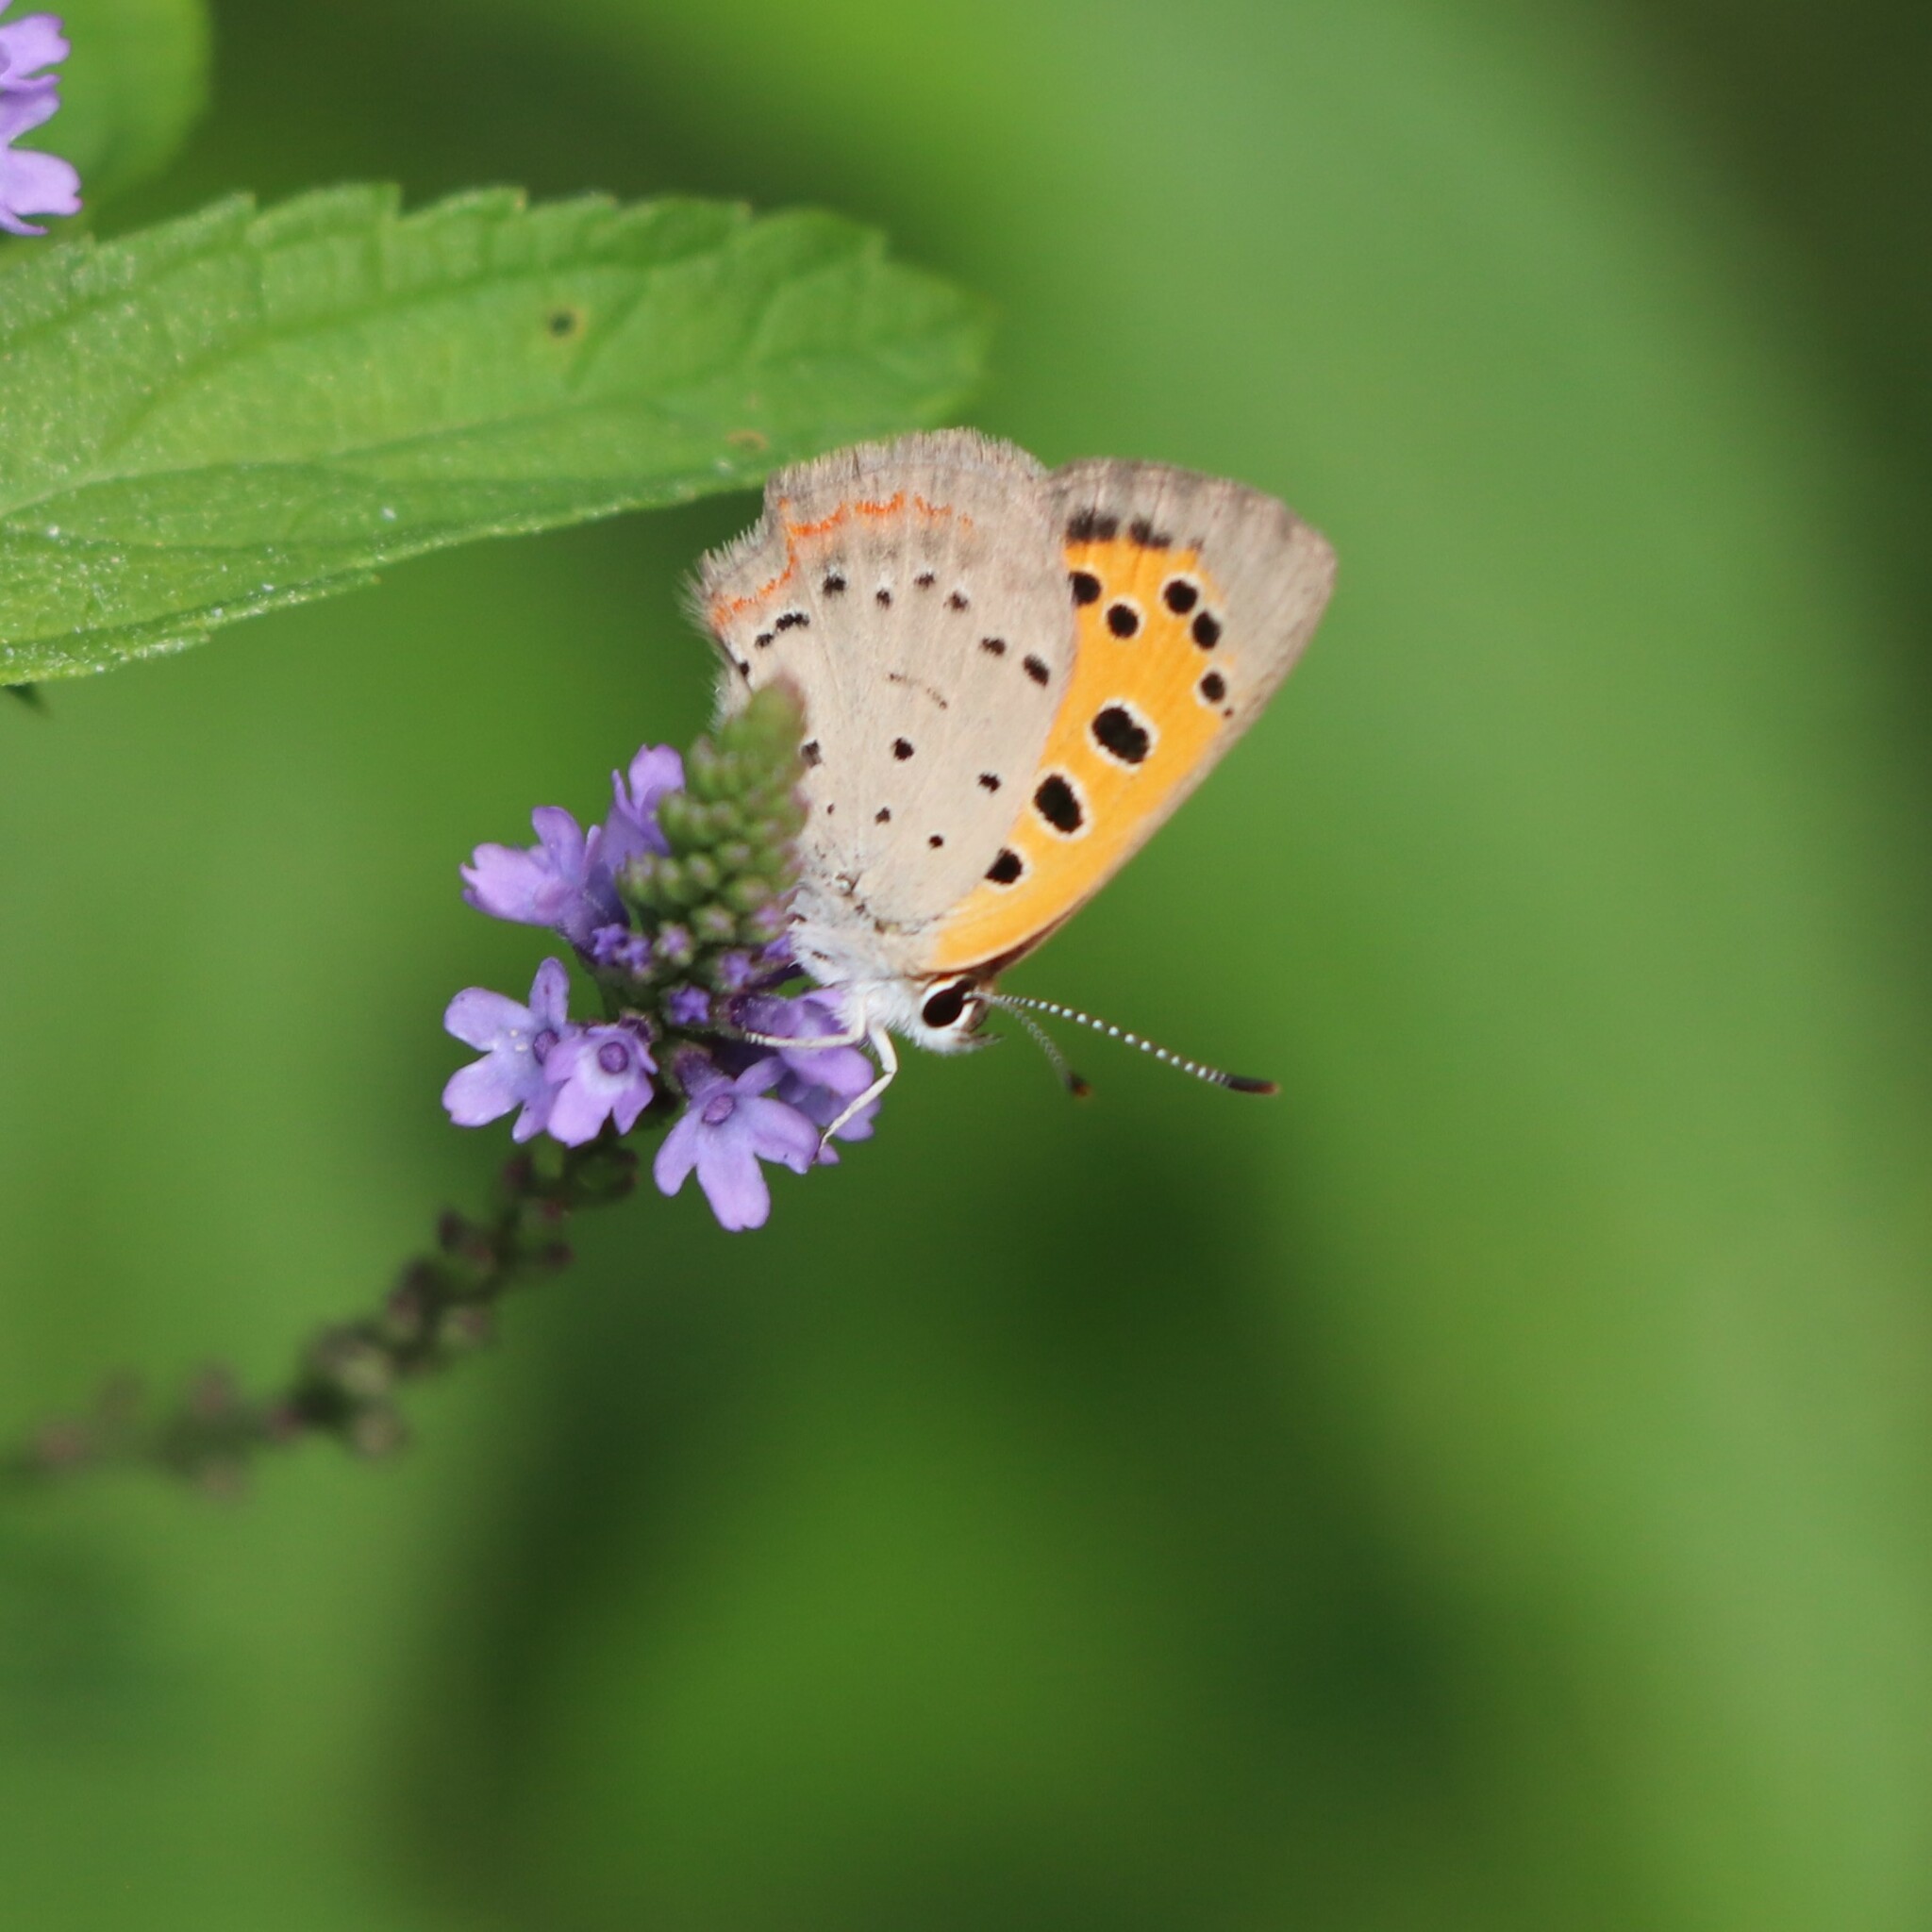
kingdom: Animalia
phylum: Arthropoda
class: Insecta
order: Lepidoptera
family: Lycaenidae
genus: Lycaena
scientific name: Lycaena hypophlaeas
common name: American copper
